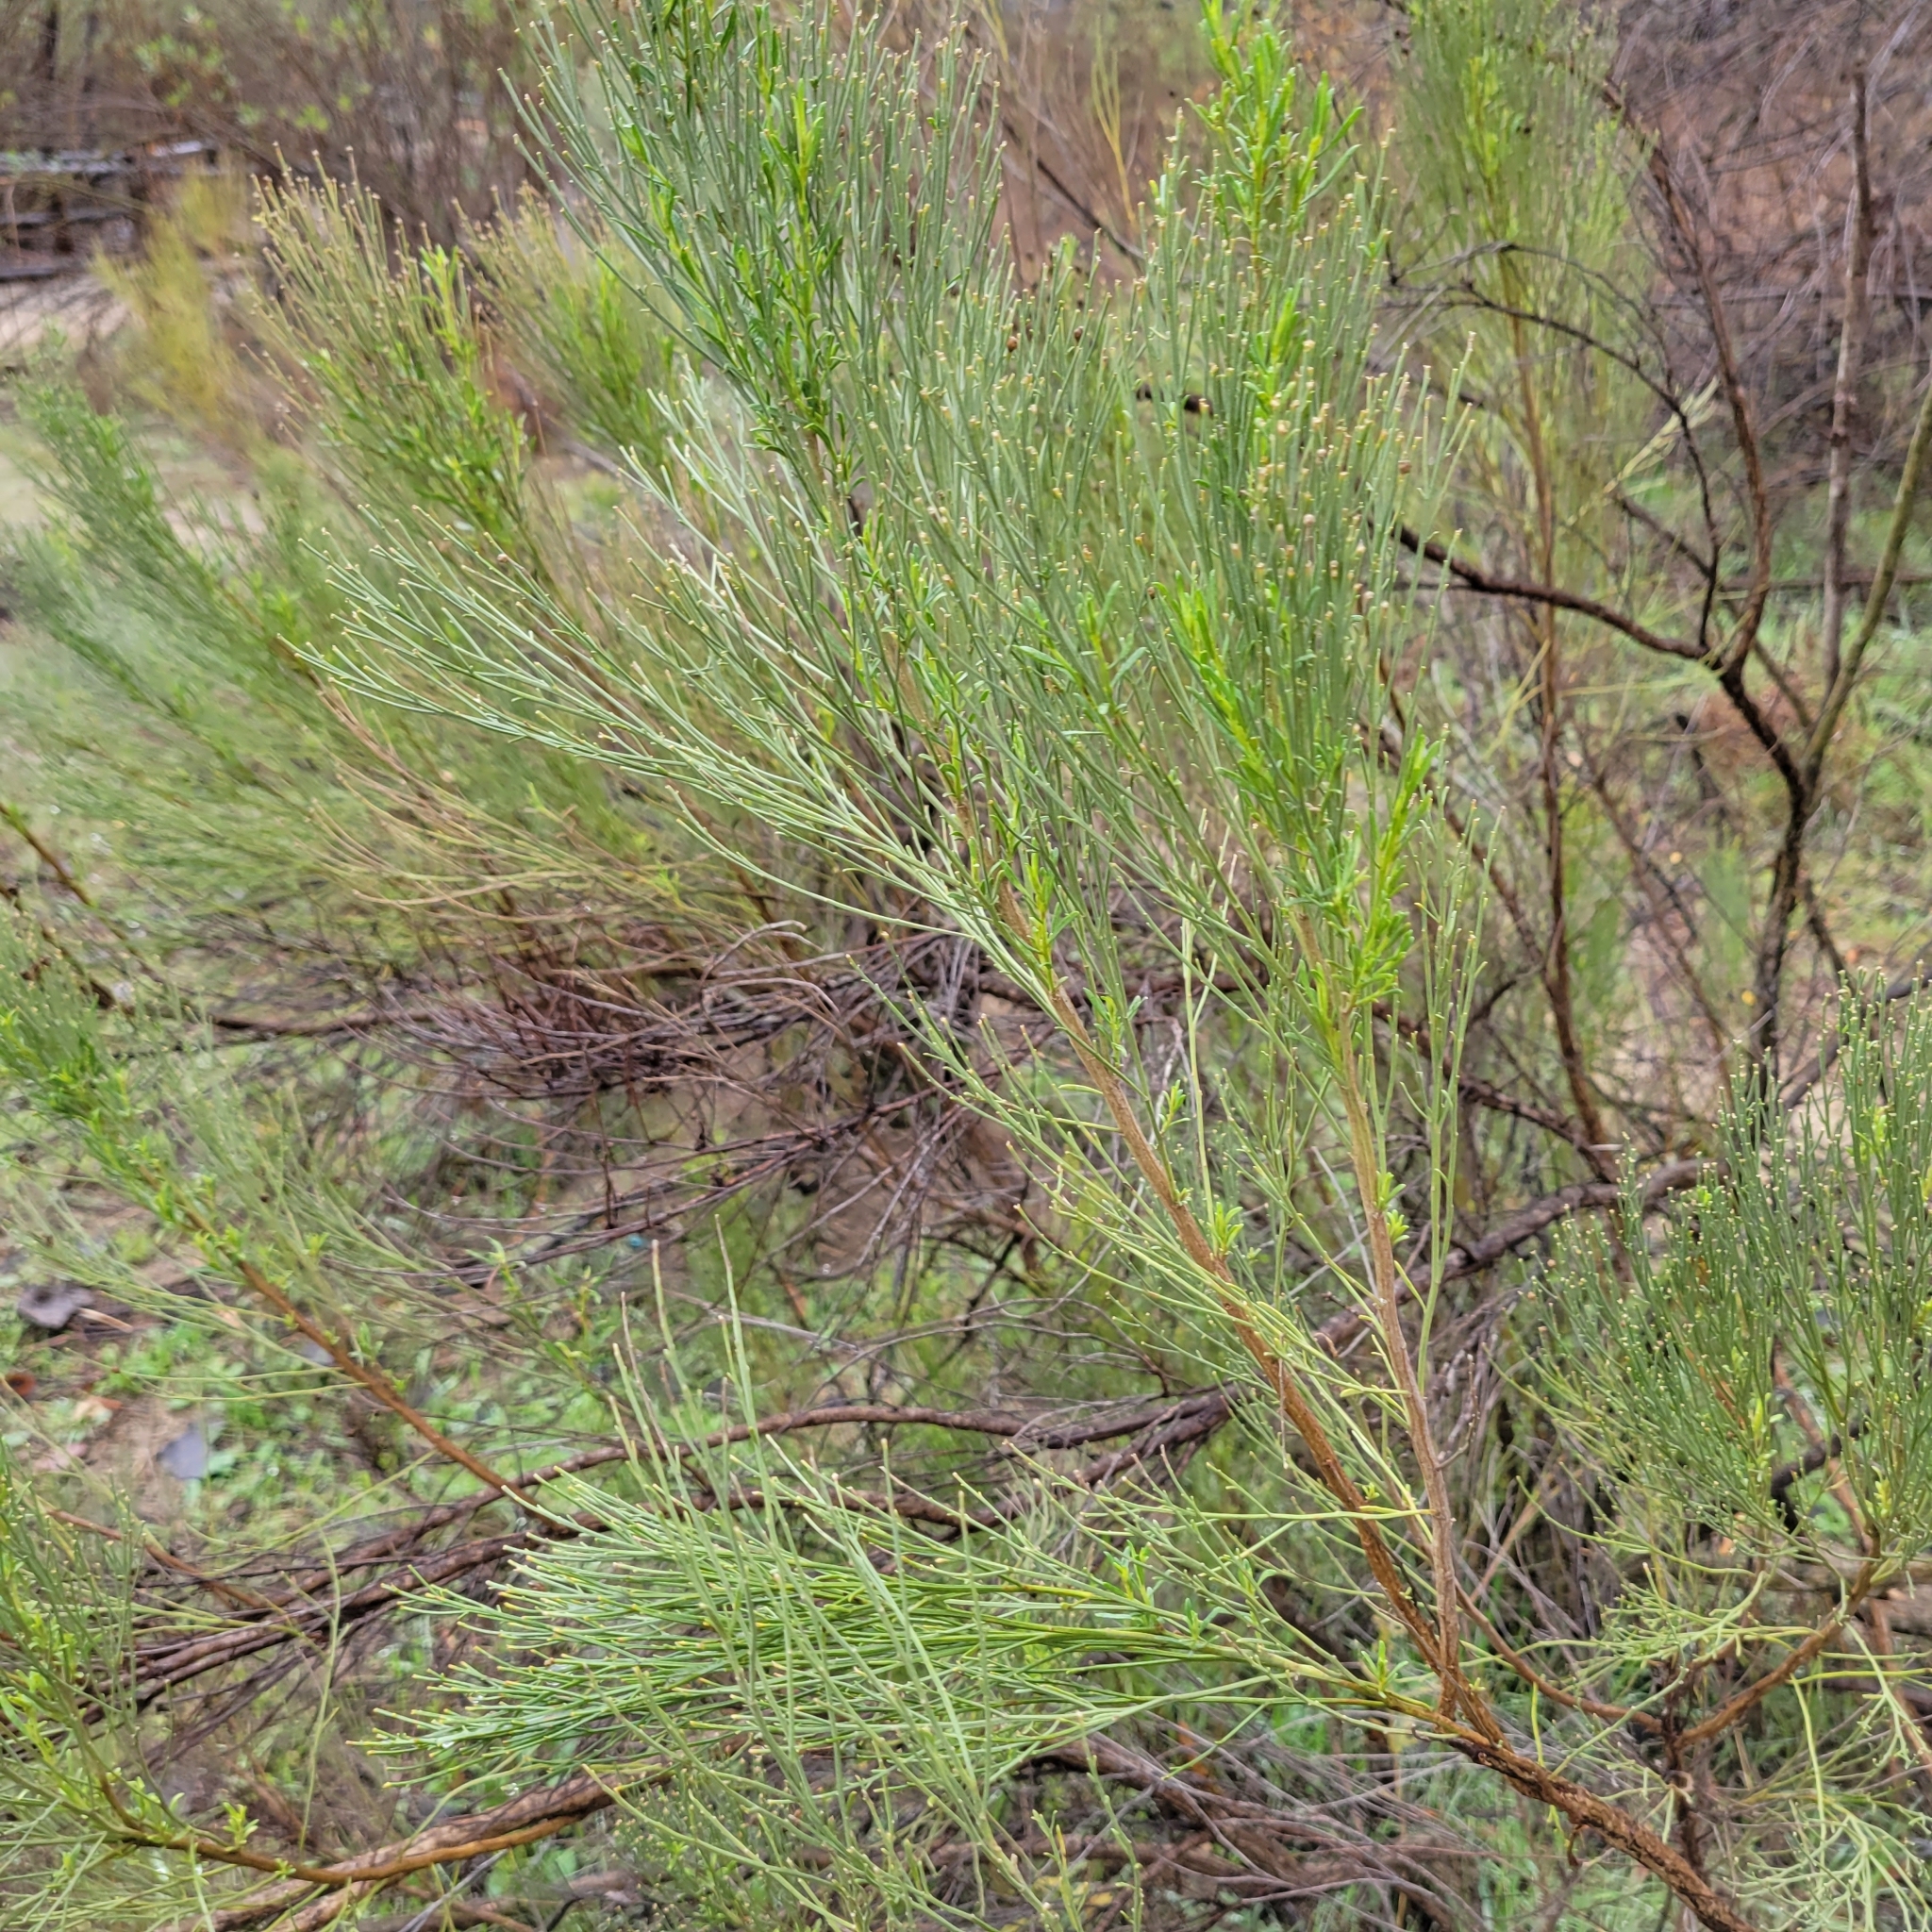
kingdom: Plantae
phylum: Tracheophyta
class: Magnoliopsida
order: Asterales
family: Asteraceae
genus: Baccharis
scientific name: Baccharis sarothroides
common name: Desert-broom
